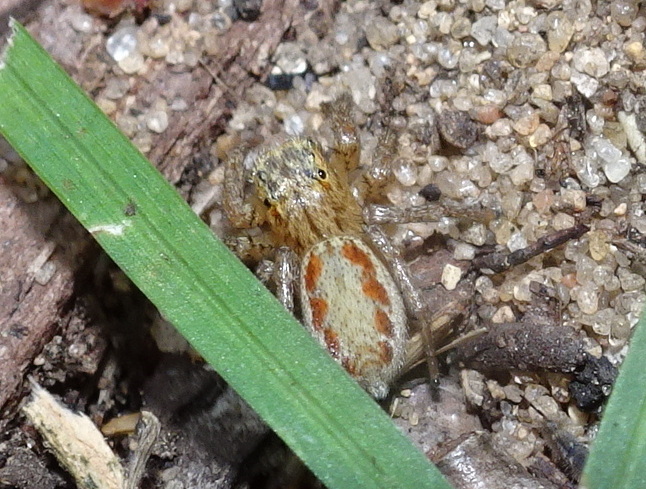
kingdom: Animalia
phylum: Arthropoda
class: Arachnida
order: Araneae
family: Salticidae
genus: Maevia
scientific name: Maevia inclemens
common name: Dimorphic jumper
